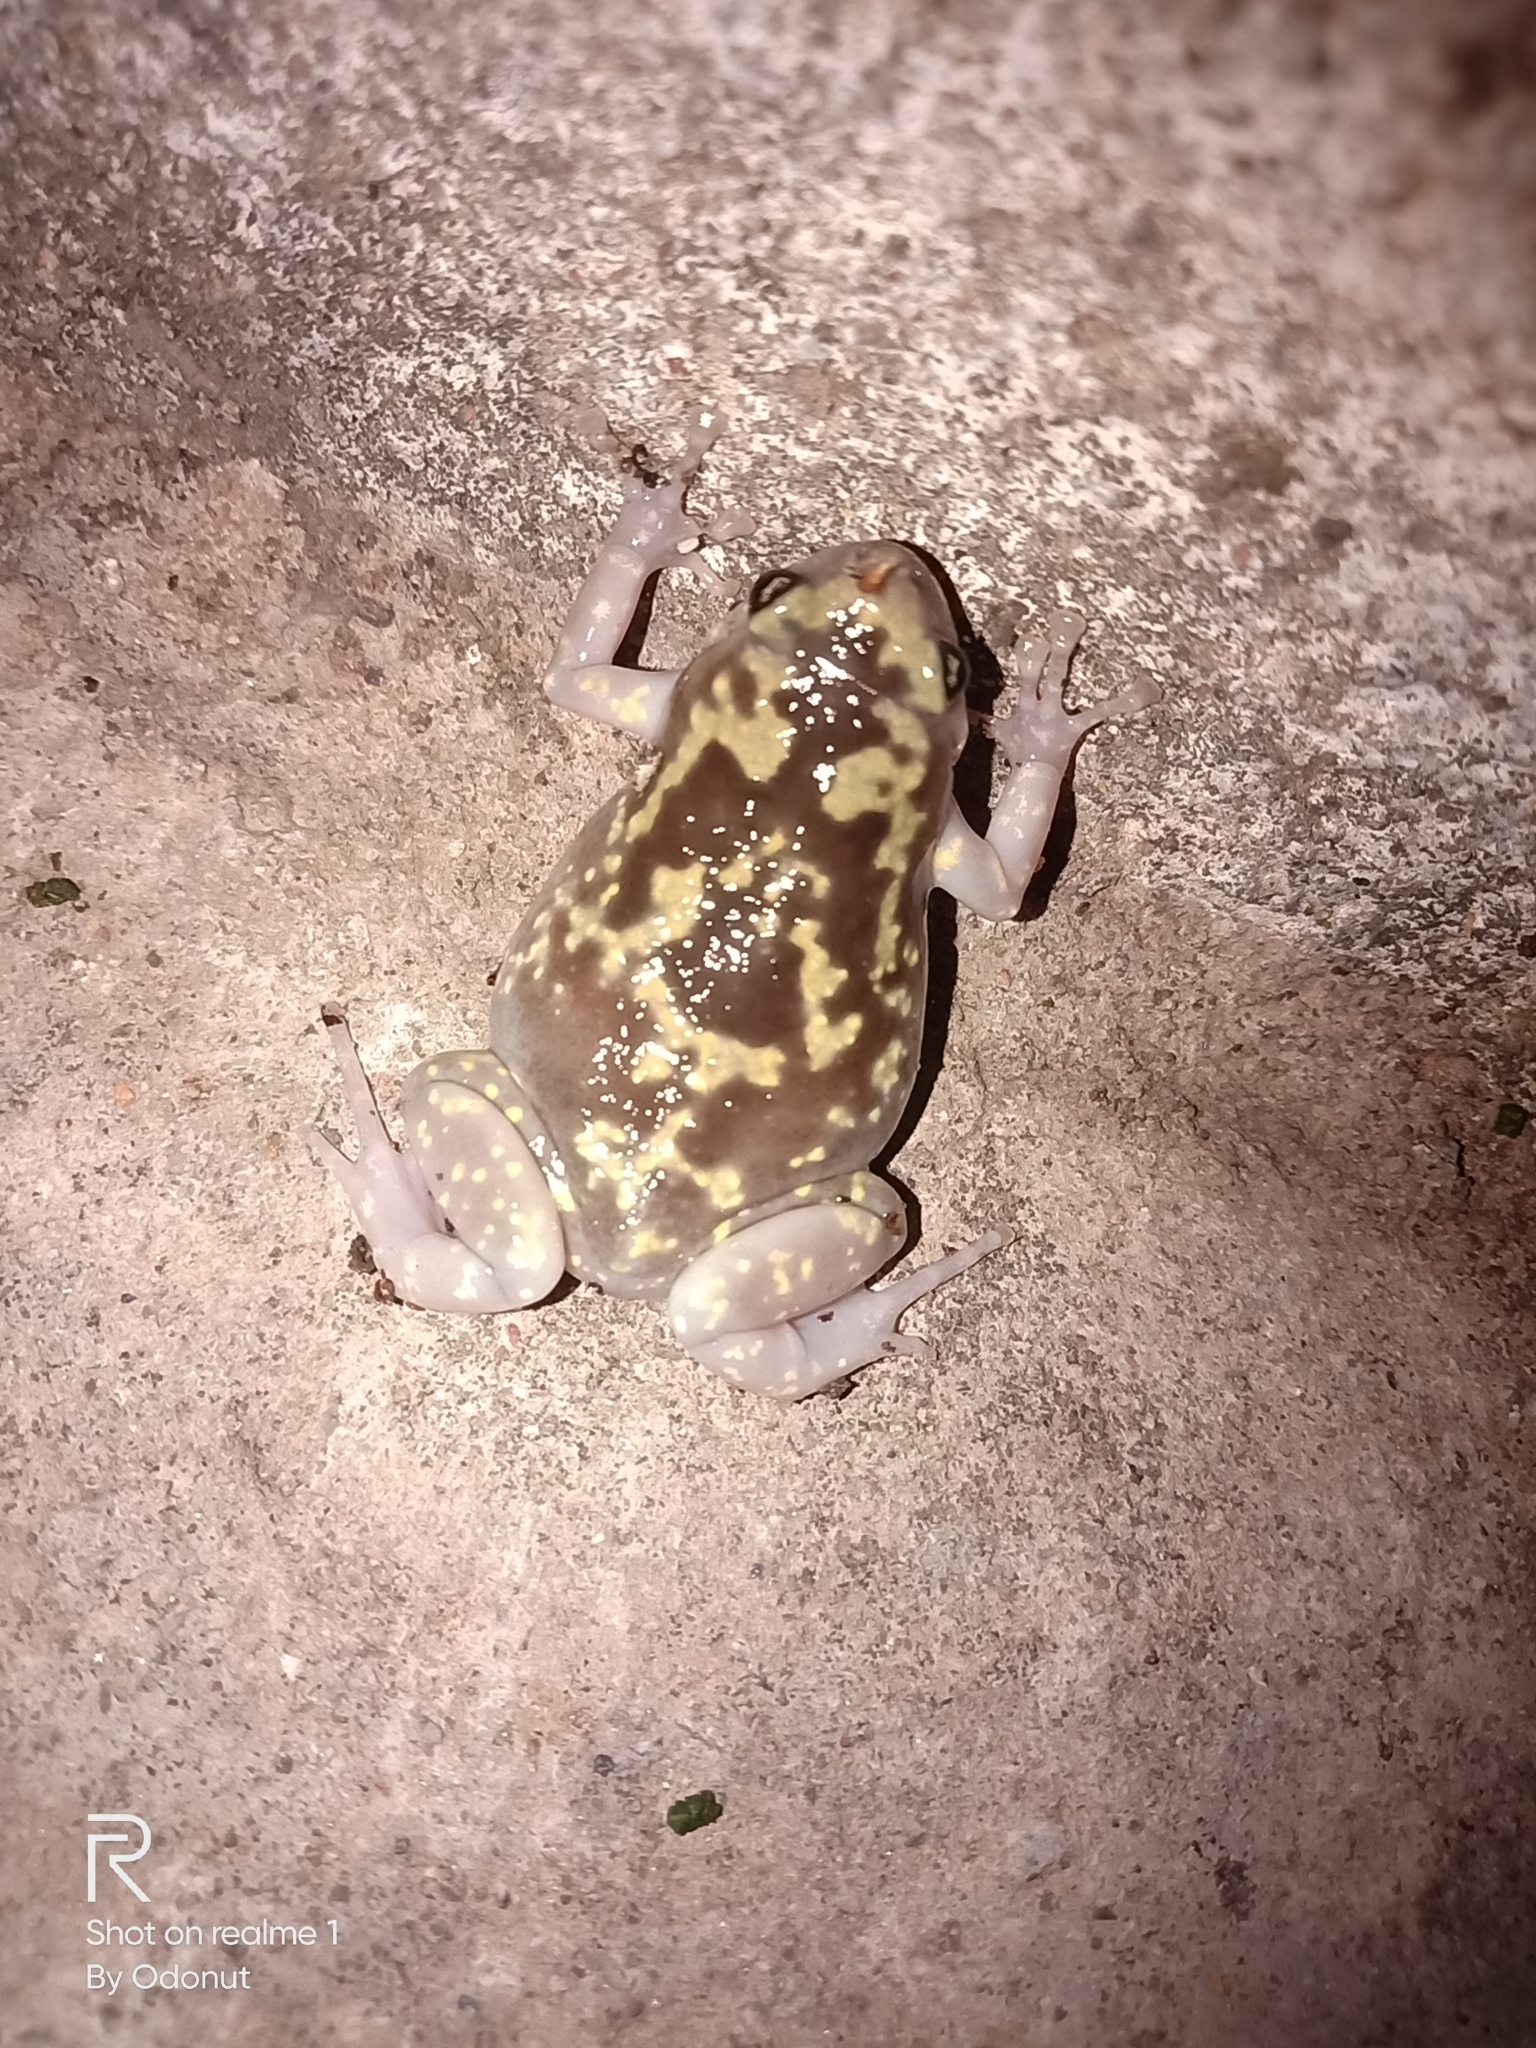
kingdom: Animalia
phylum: Chordata
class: Amphibia
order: Anura
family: Microhylidae
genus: Uperodon
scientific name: Uperodon variegatus
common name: Eluru dot frog
